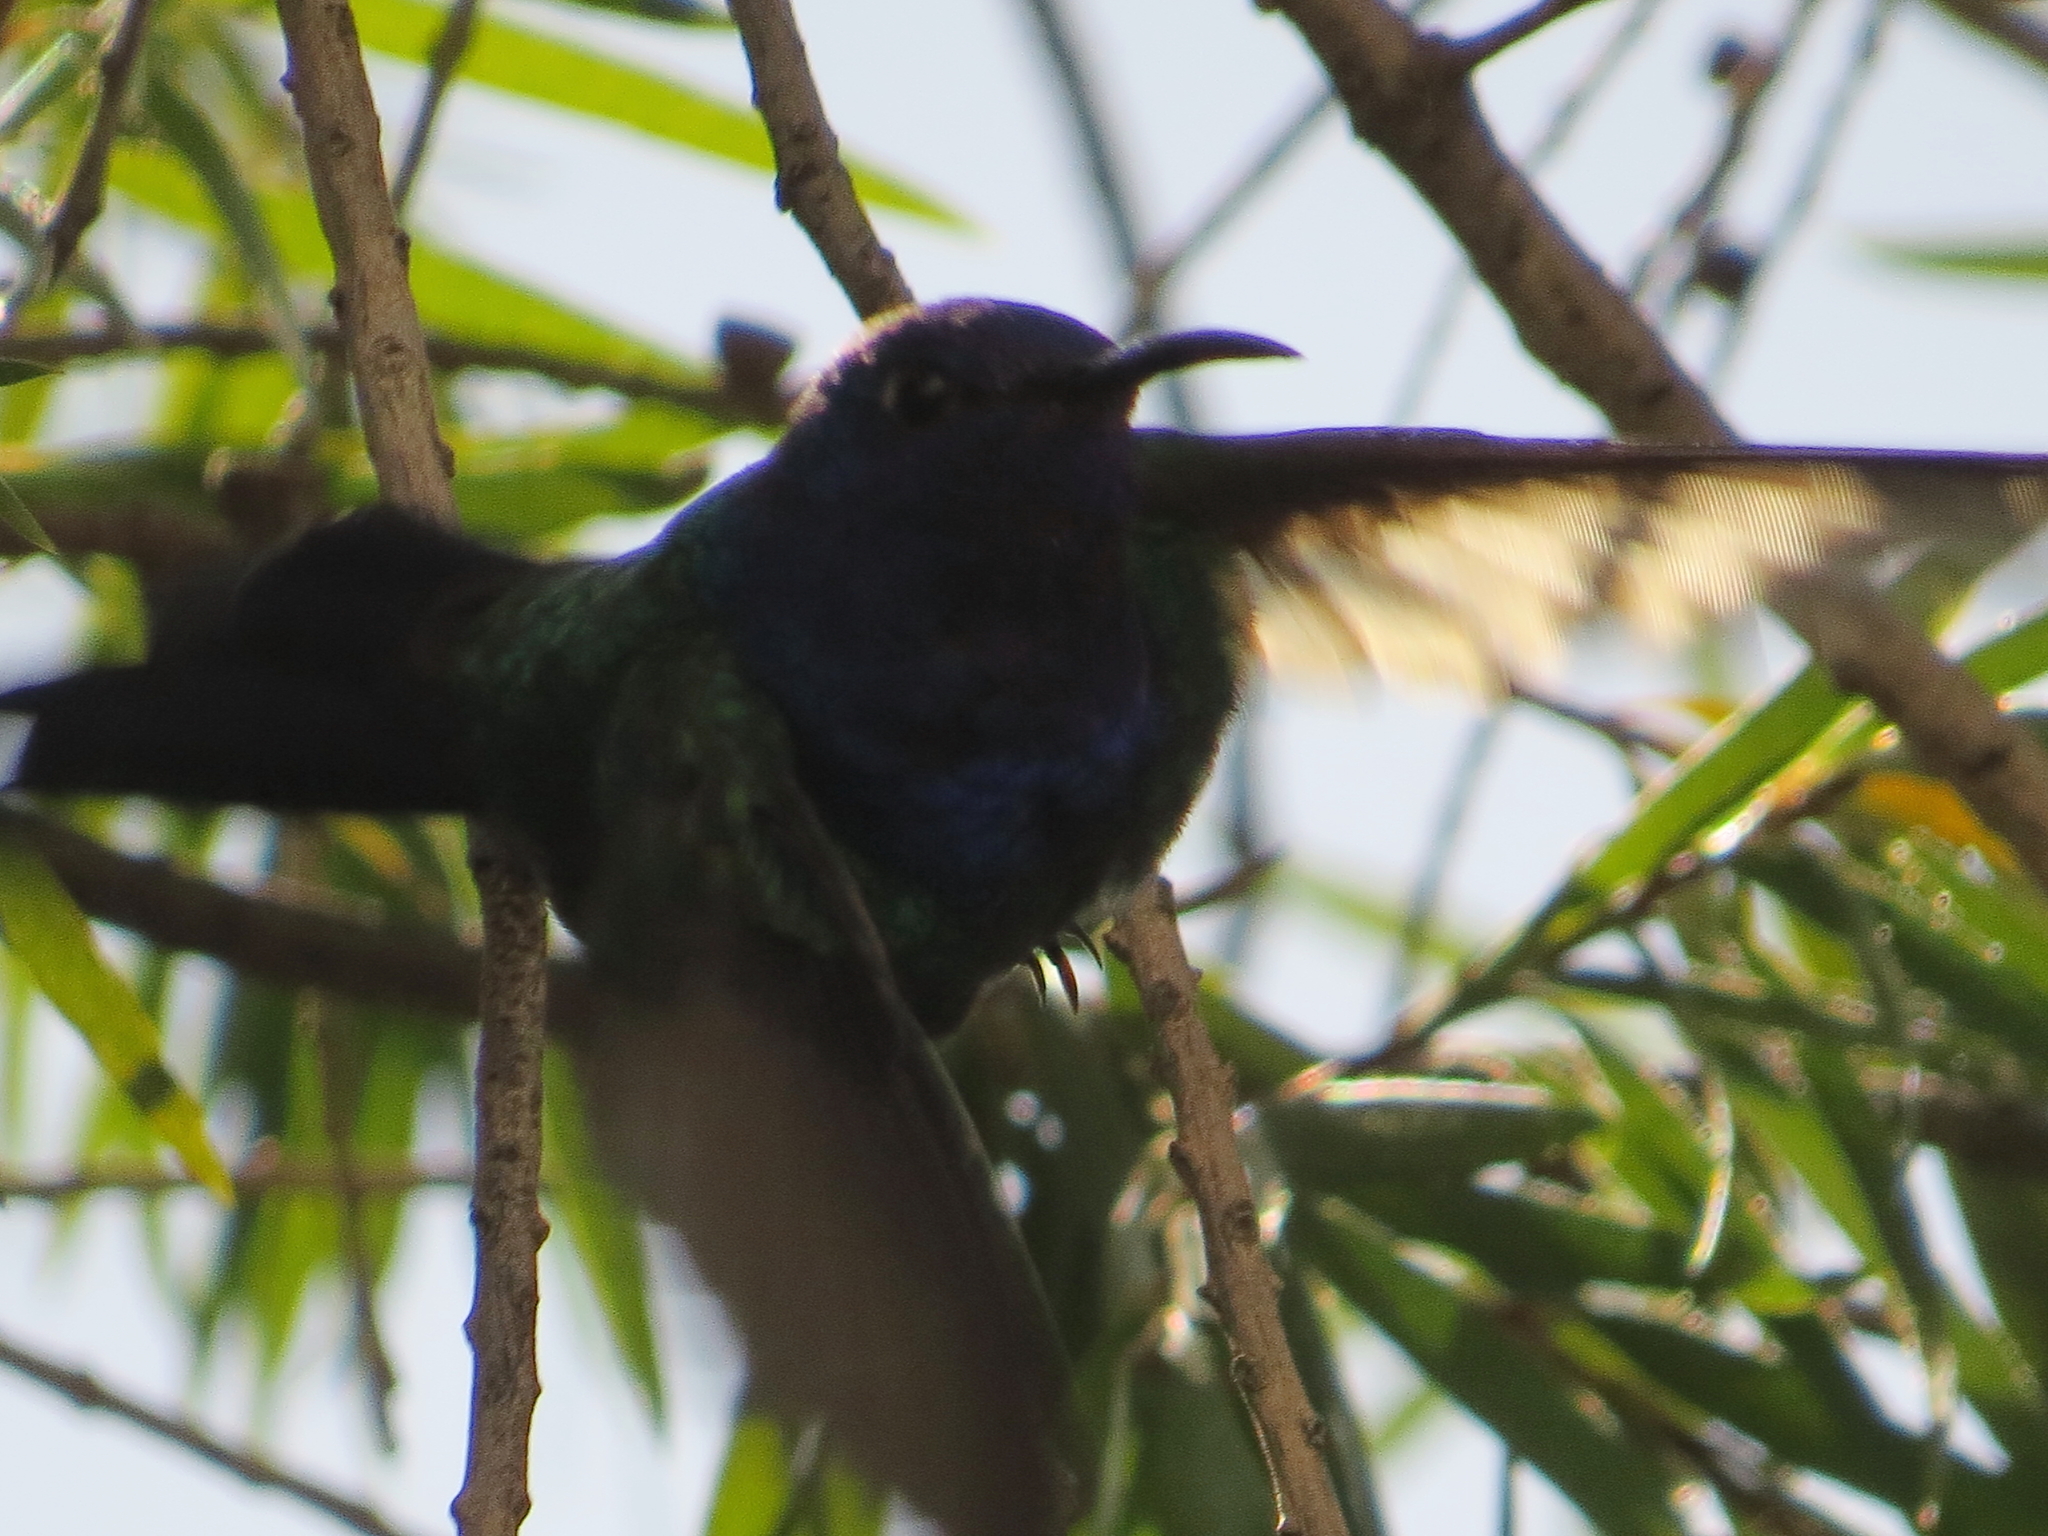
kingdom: Animalia
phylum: Chordata
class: Aves
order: Apodiformes
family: Trochilidae
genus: Eupetomena
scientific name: Eupetomena macroura
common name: Swallow-tailed hummingbird
